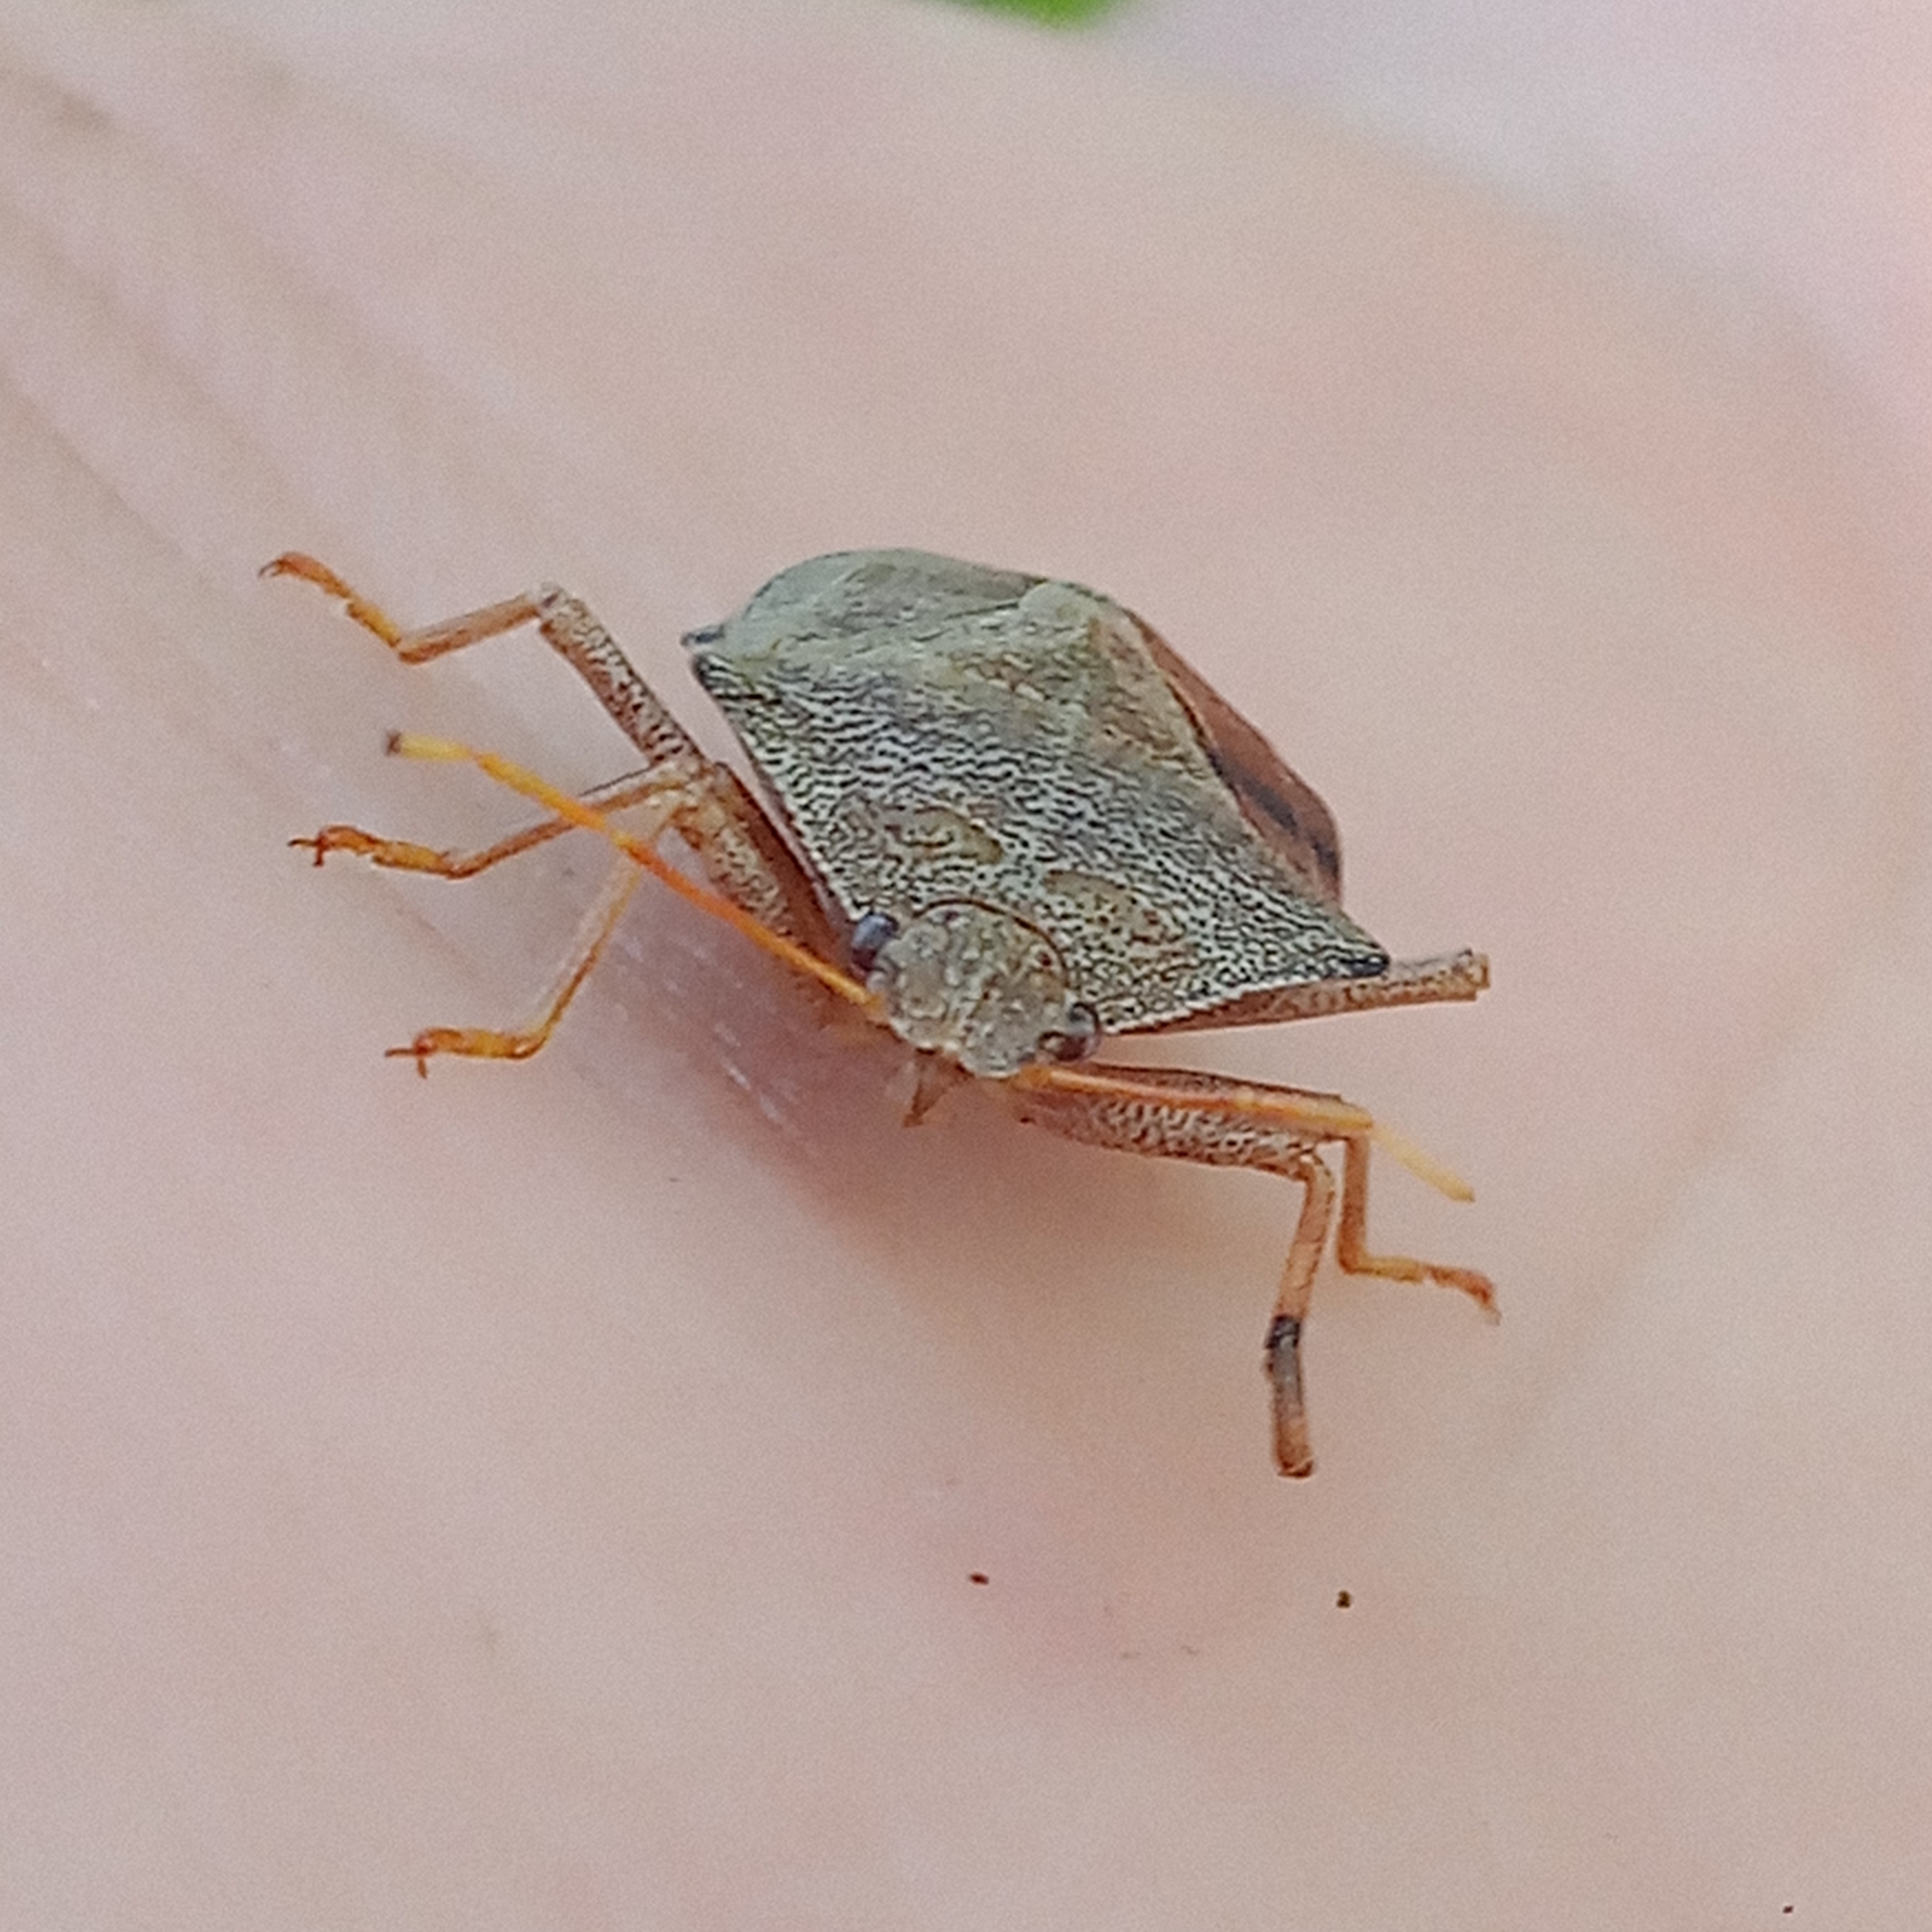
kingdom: Animalia
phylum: Arthropoda
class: Insecta
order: Hemiptera
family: Pentatomidae
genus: Arma
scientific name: Arma custos
